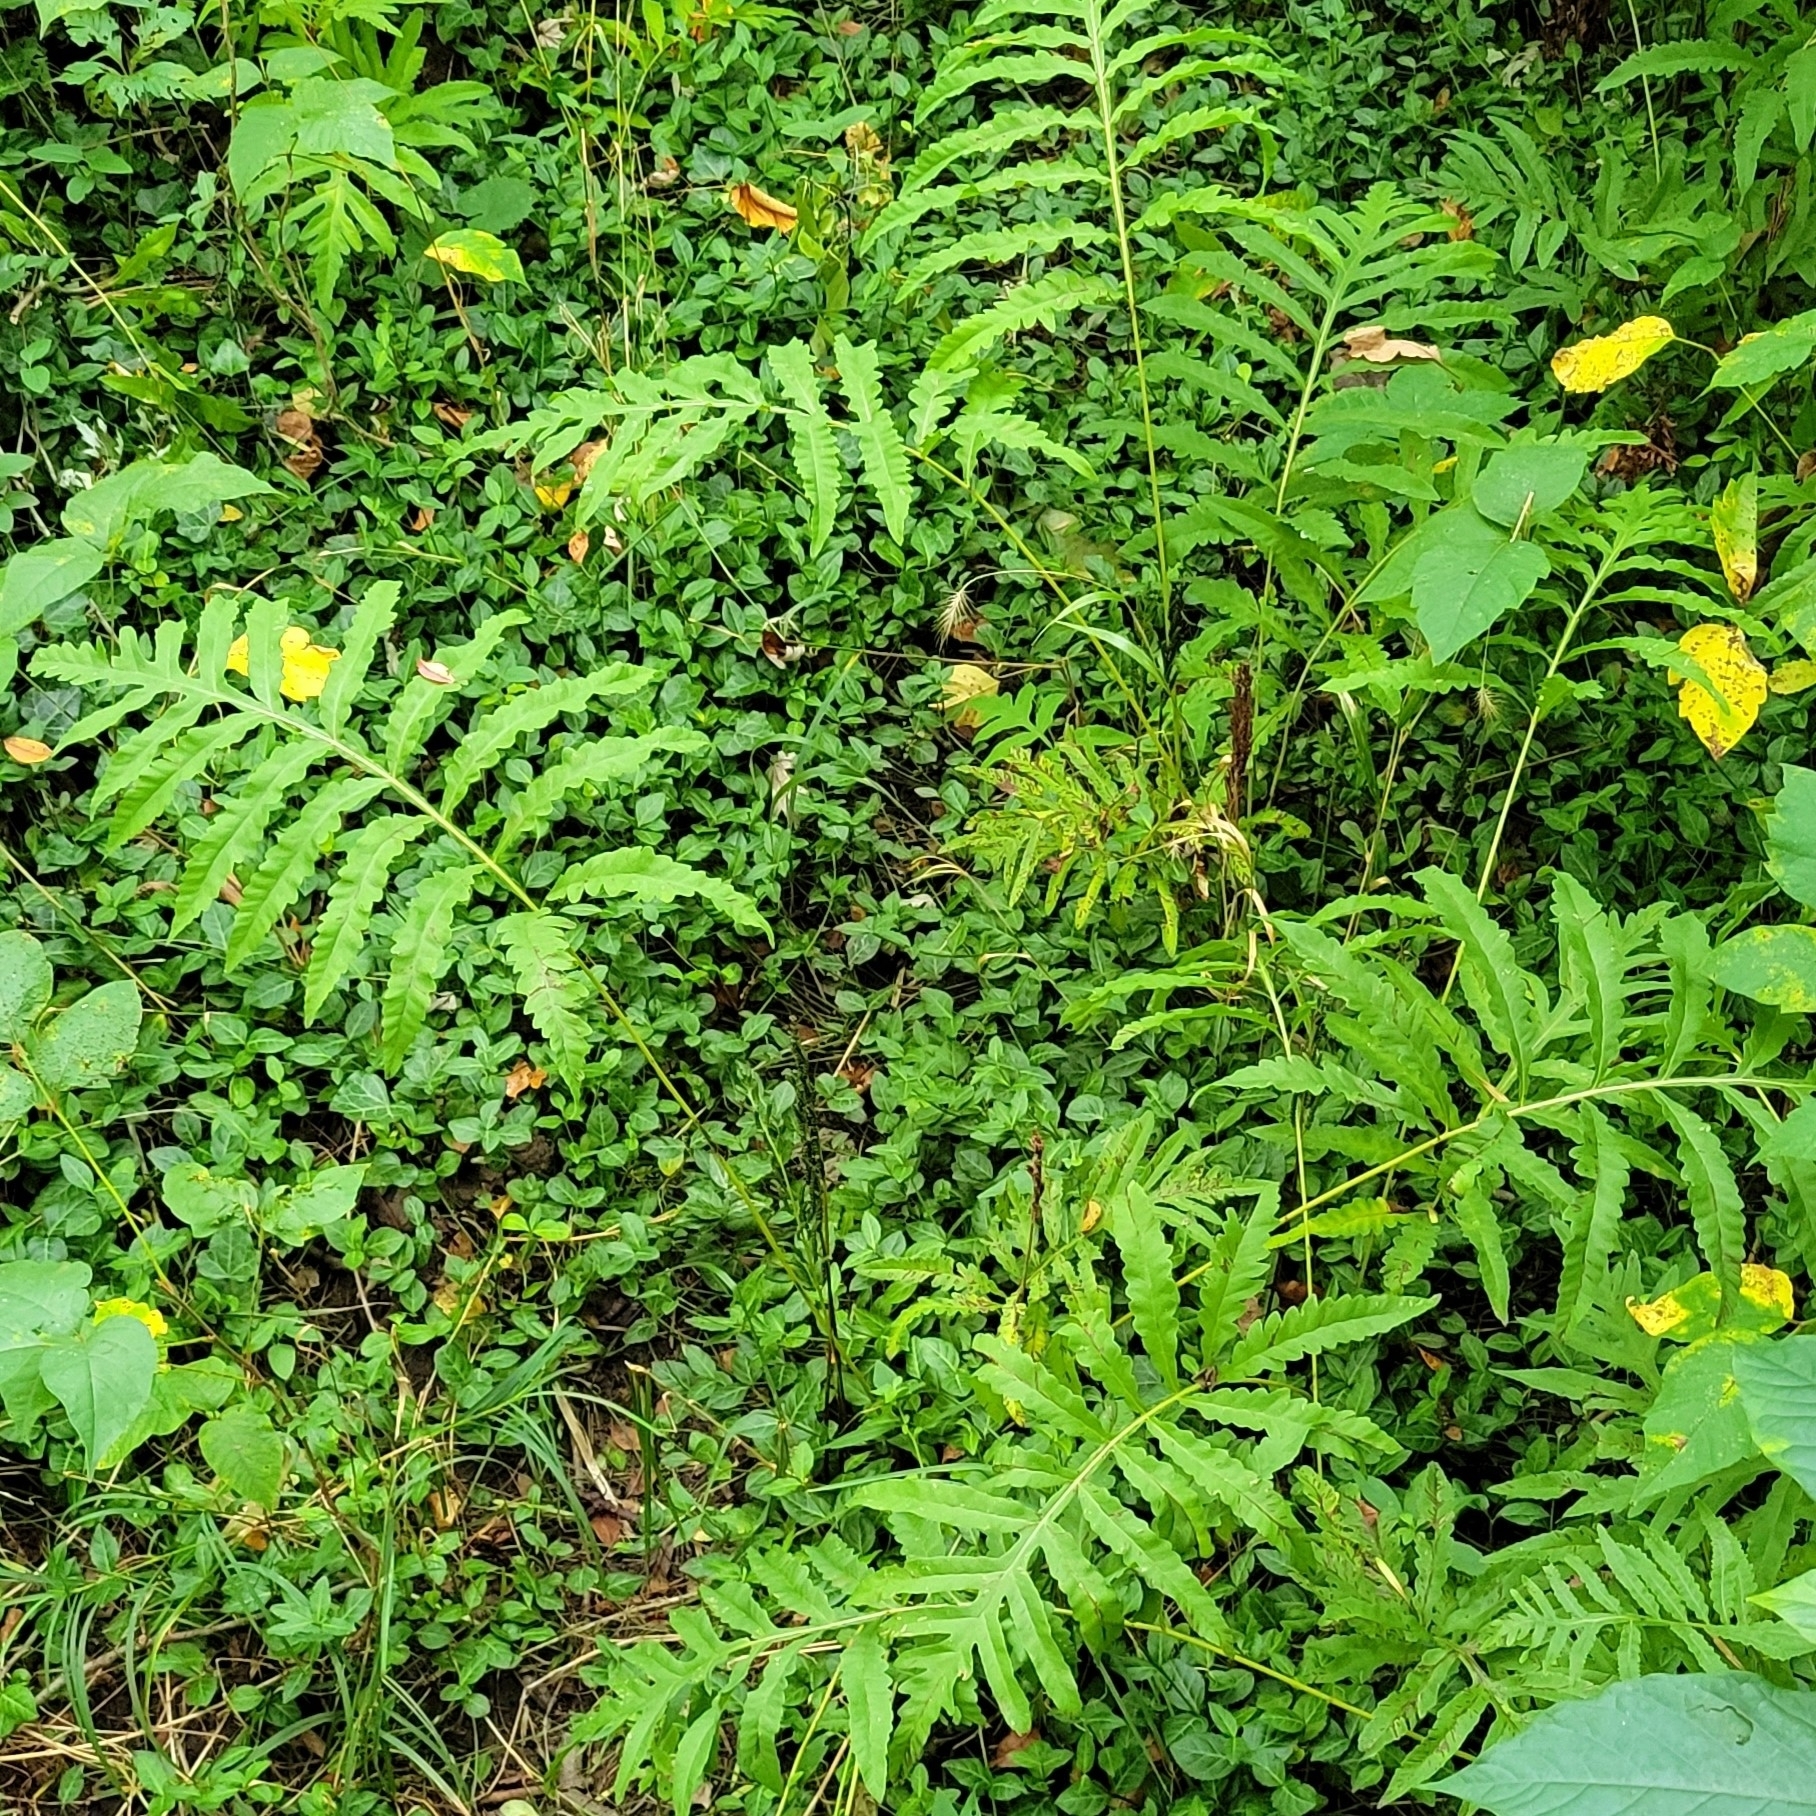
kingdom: Plantae
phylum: Tracheophyta
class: Polypodiopsida
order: Polypodiales
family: Onocleaceae
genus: Onoclea
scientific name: Onoclea sensibilis
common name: Sensitive fern
